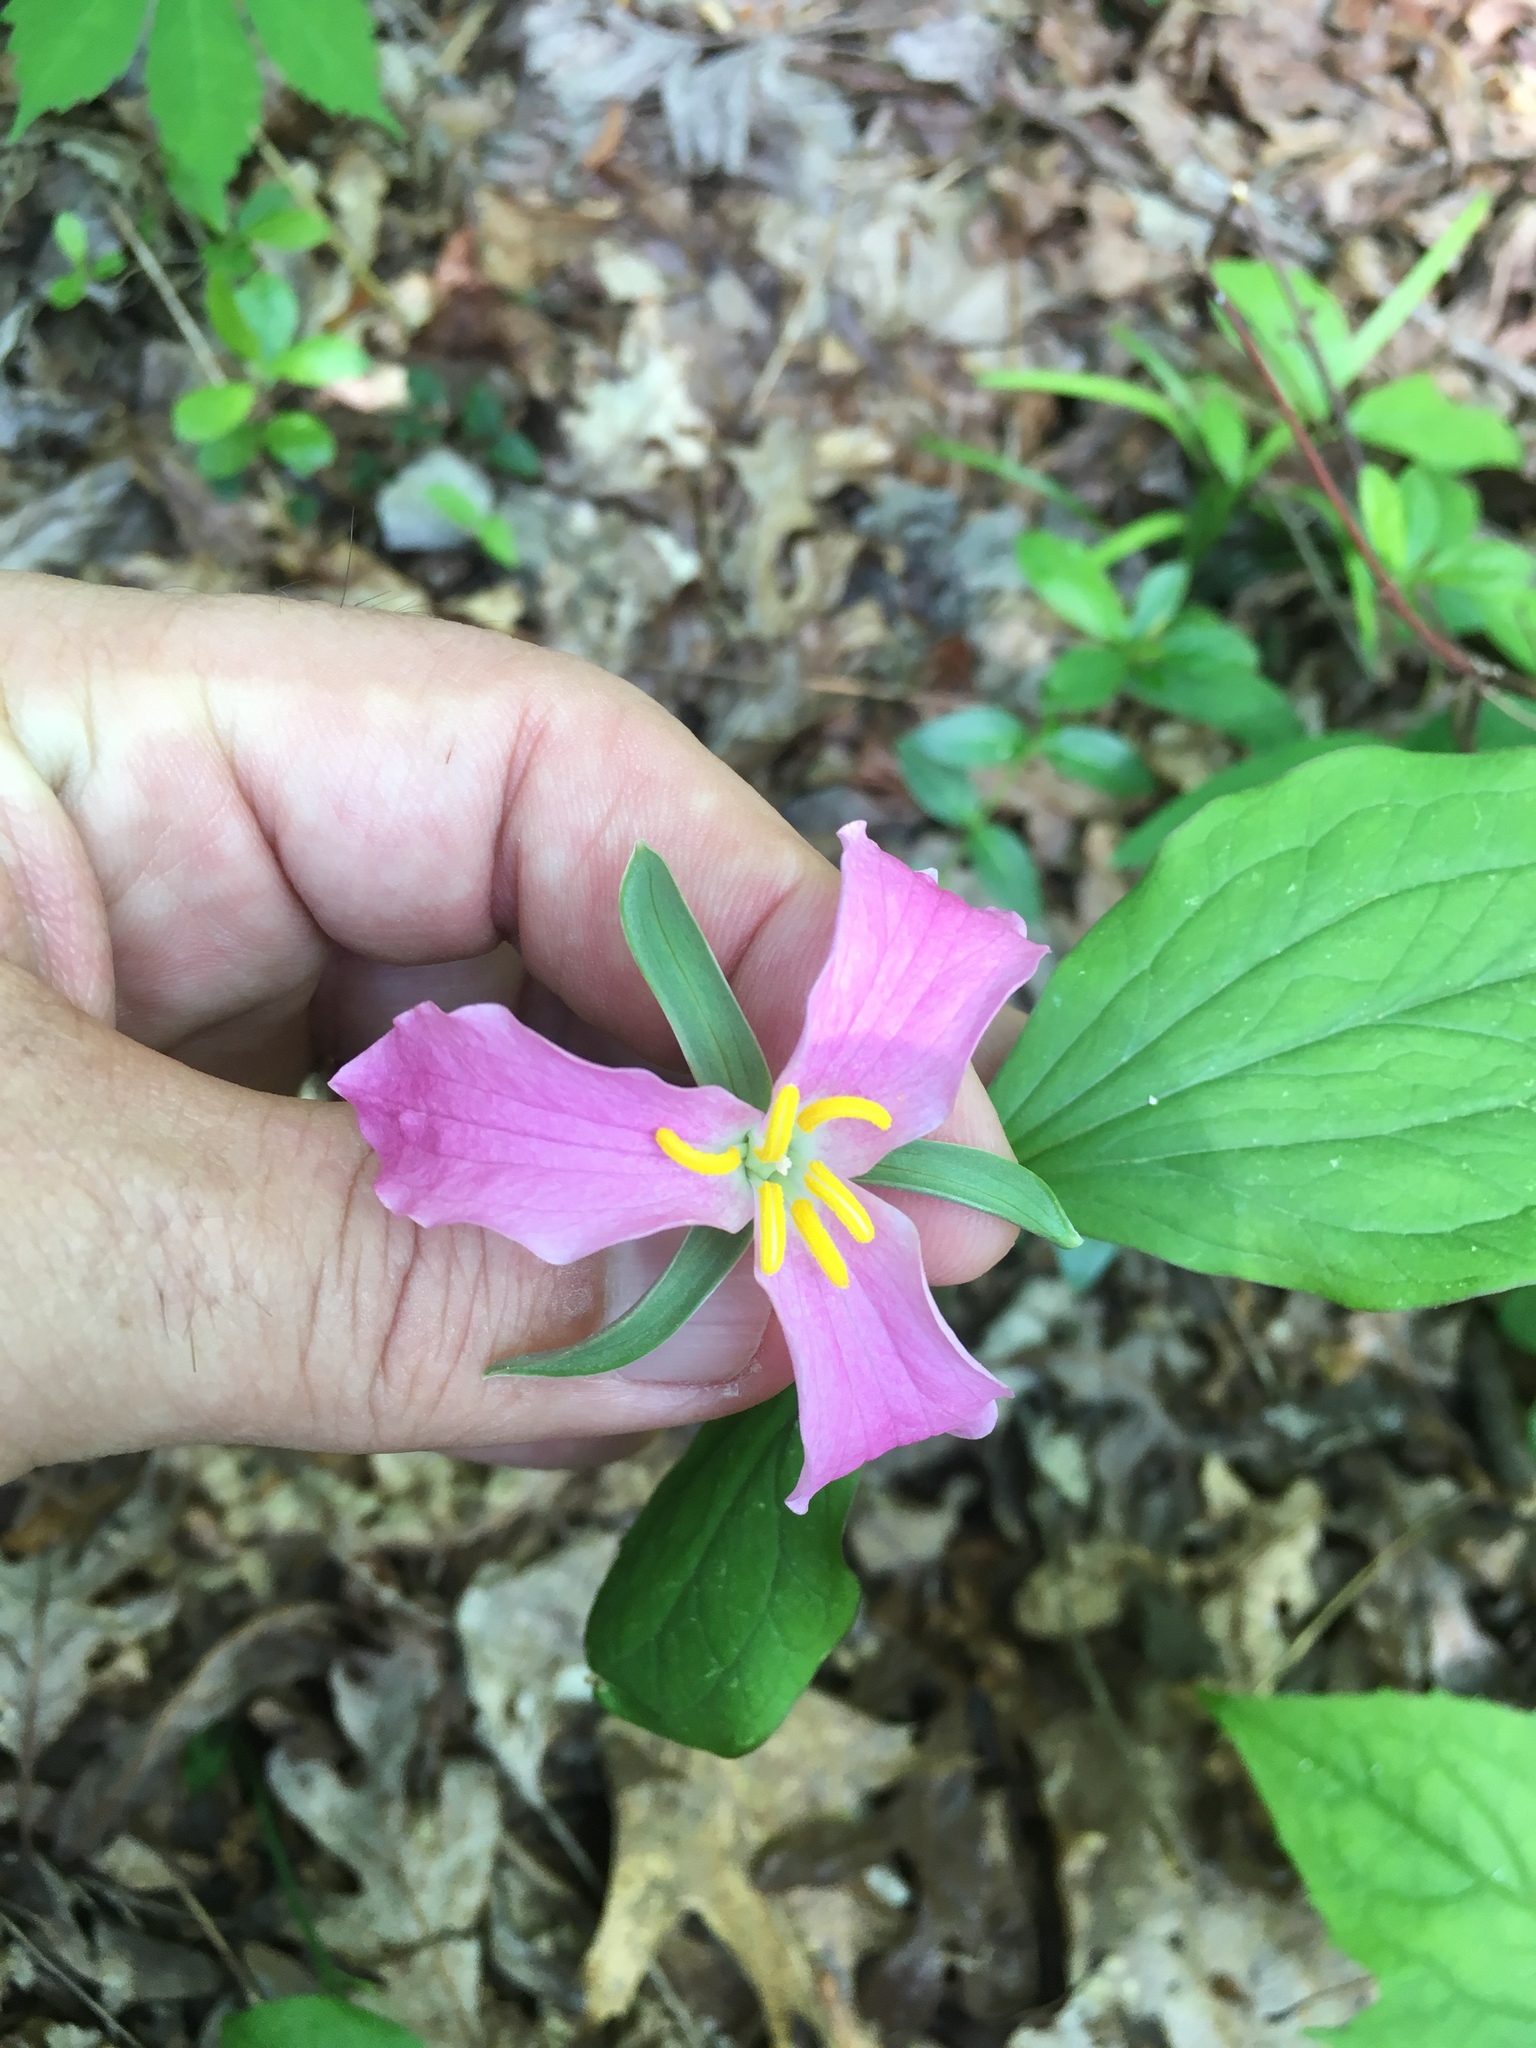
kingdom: Plantae
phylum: Tracheophyta
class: Liliopsida
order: Liliales
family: Melanthiaceae
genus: Trillium
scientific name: Trillium catesbaei
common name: Bashful trillium
